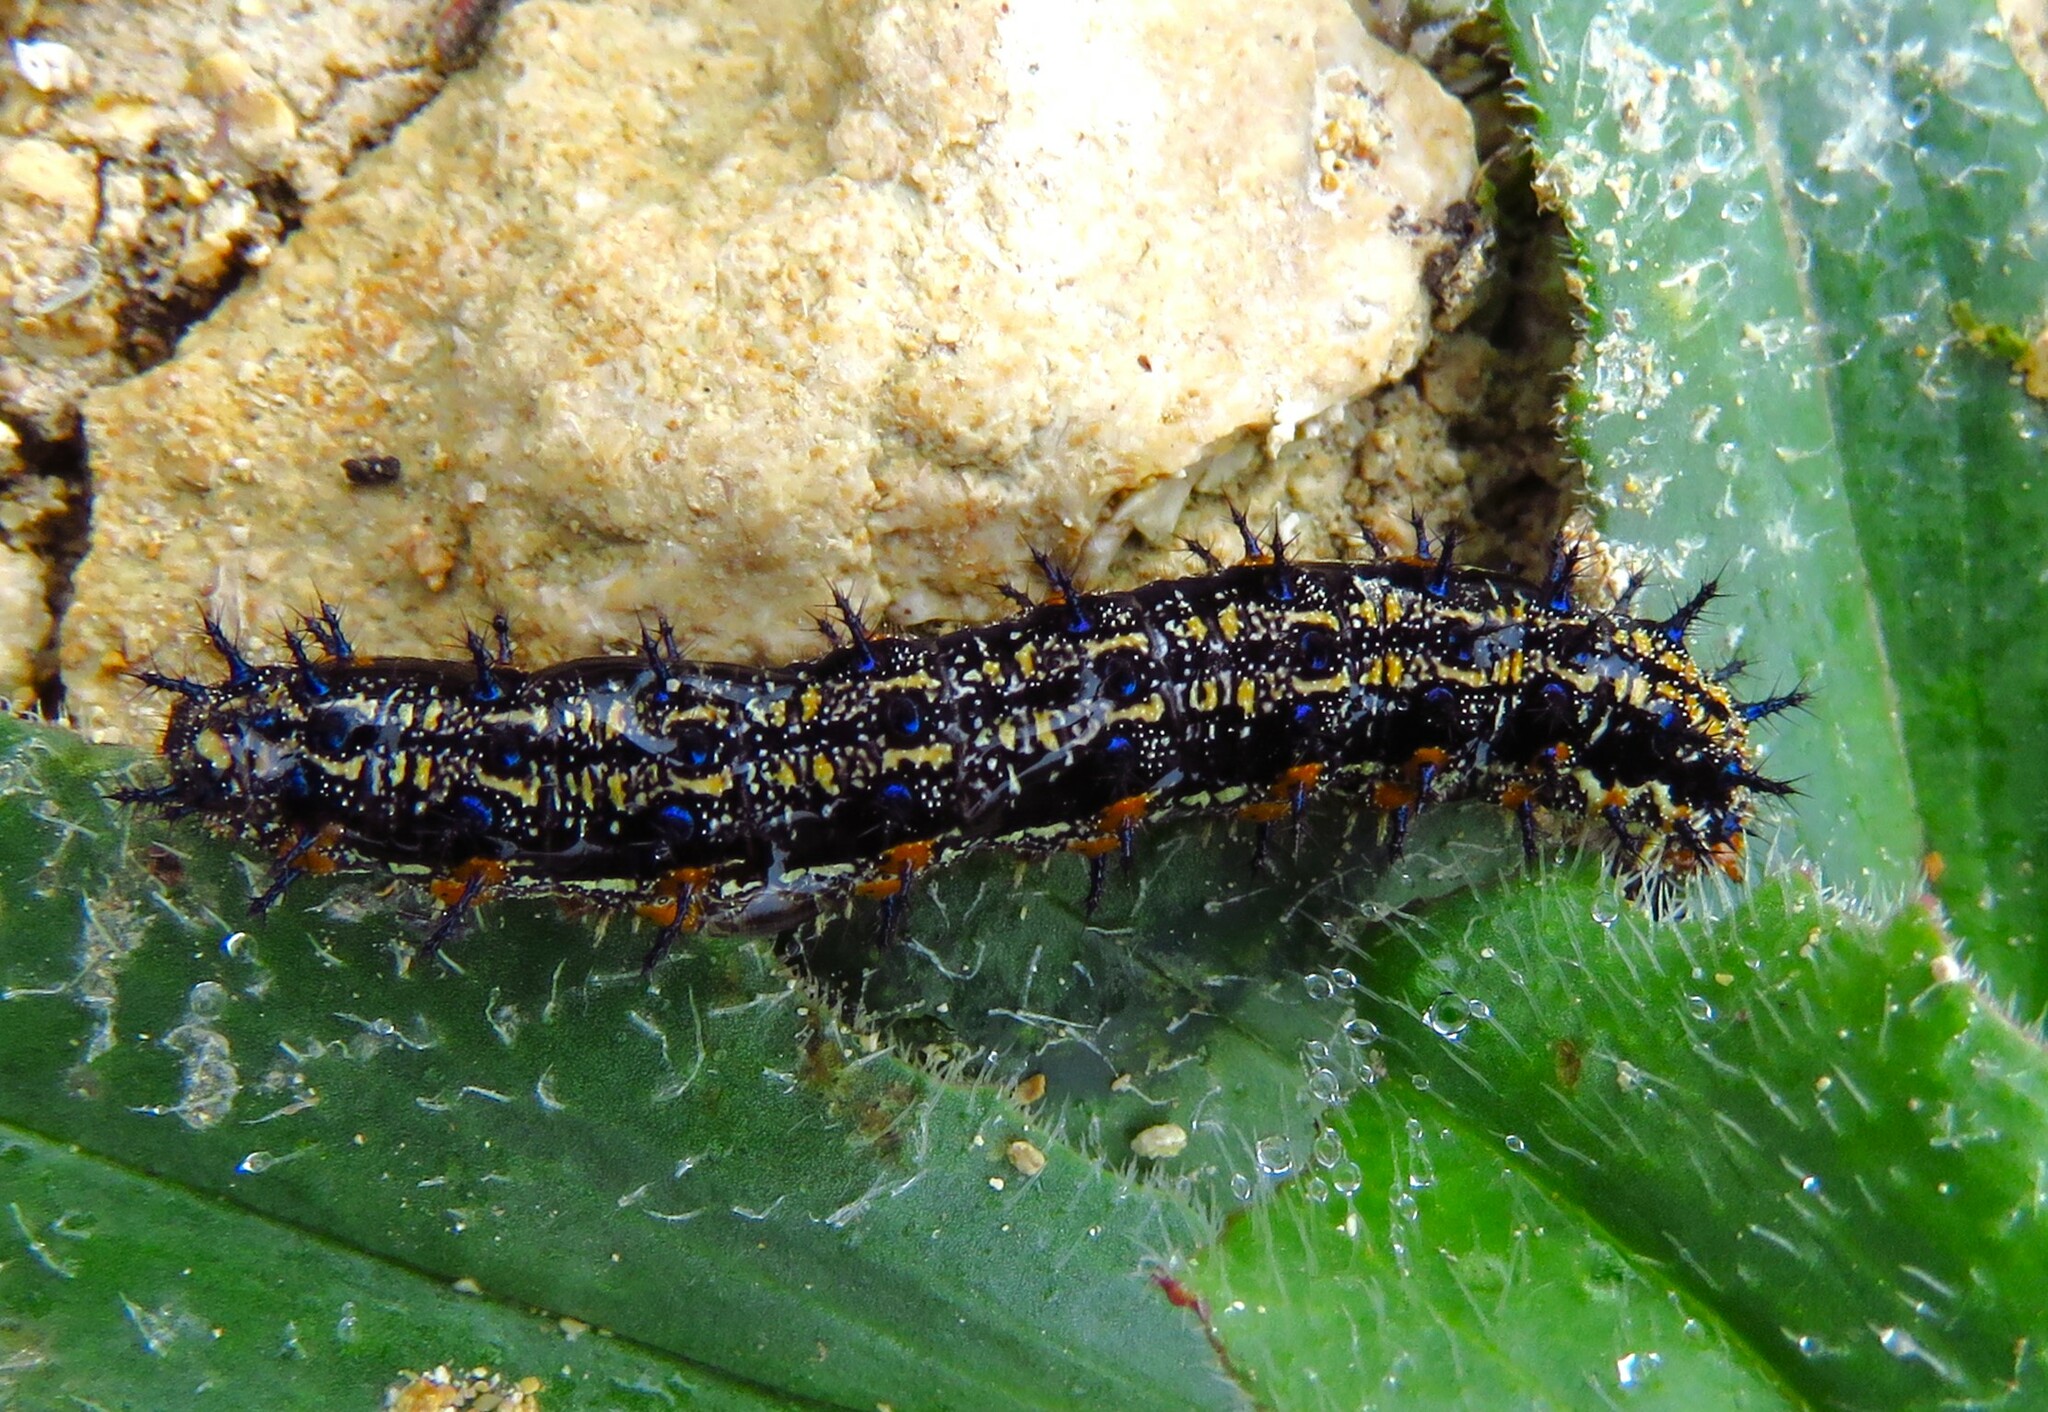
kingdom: Animalia
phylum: Arthropoda
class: Insecta
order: Lepidoptera
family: Nymphalidae
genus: Junonia
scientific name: Junonia coenia
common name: Common buckeye
